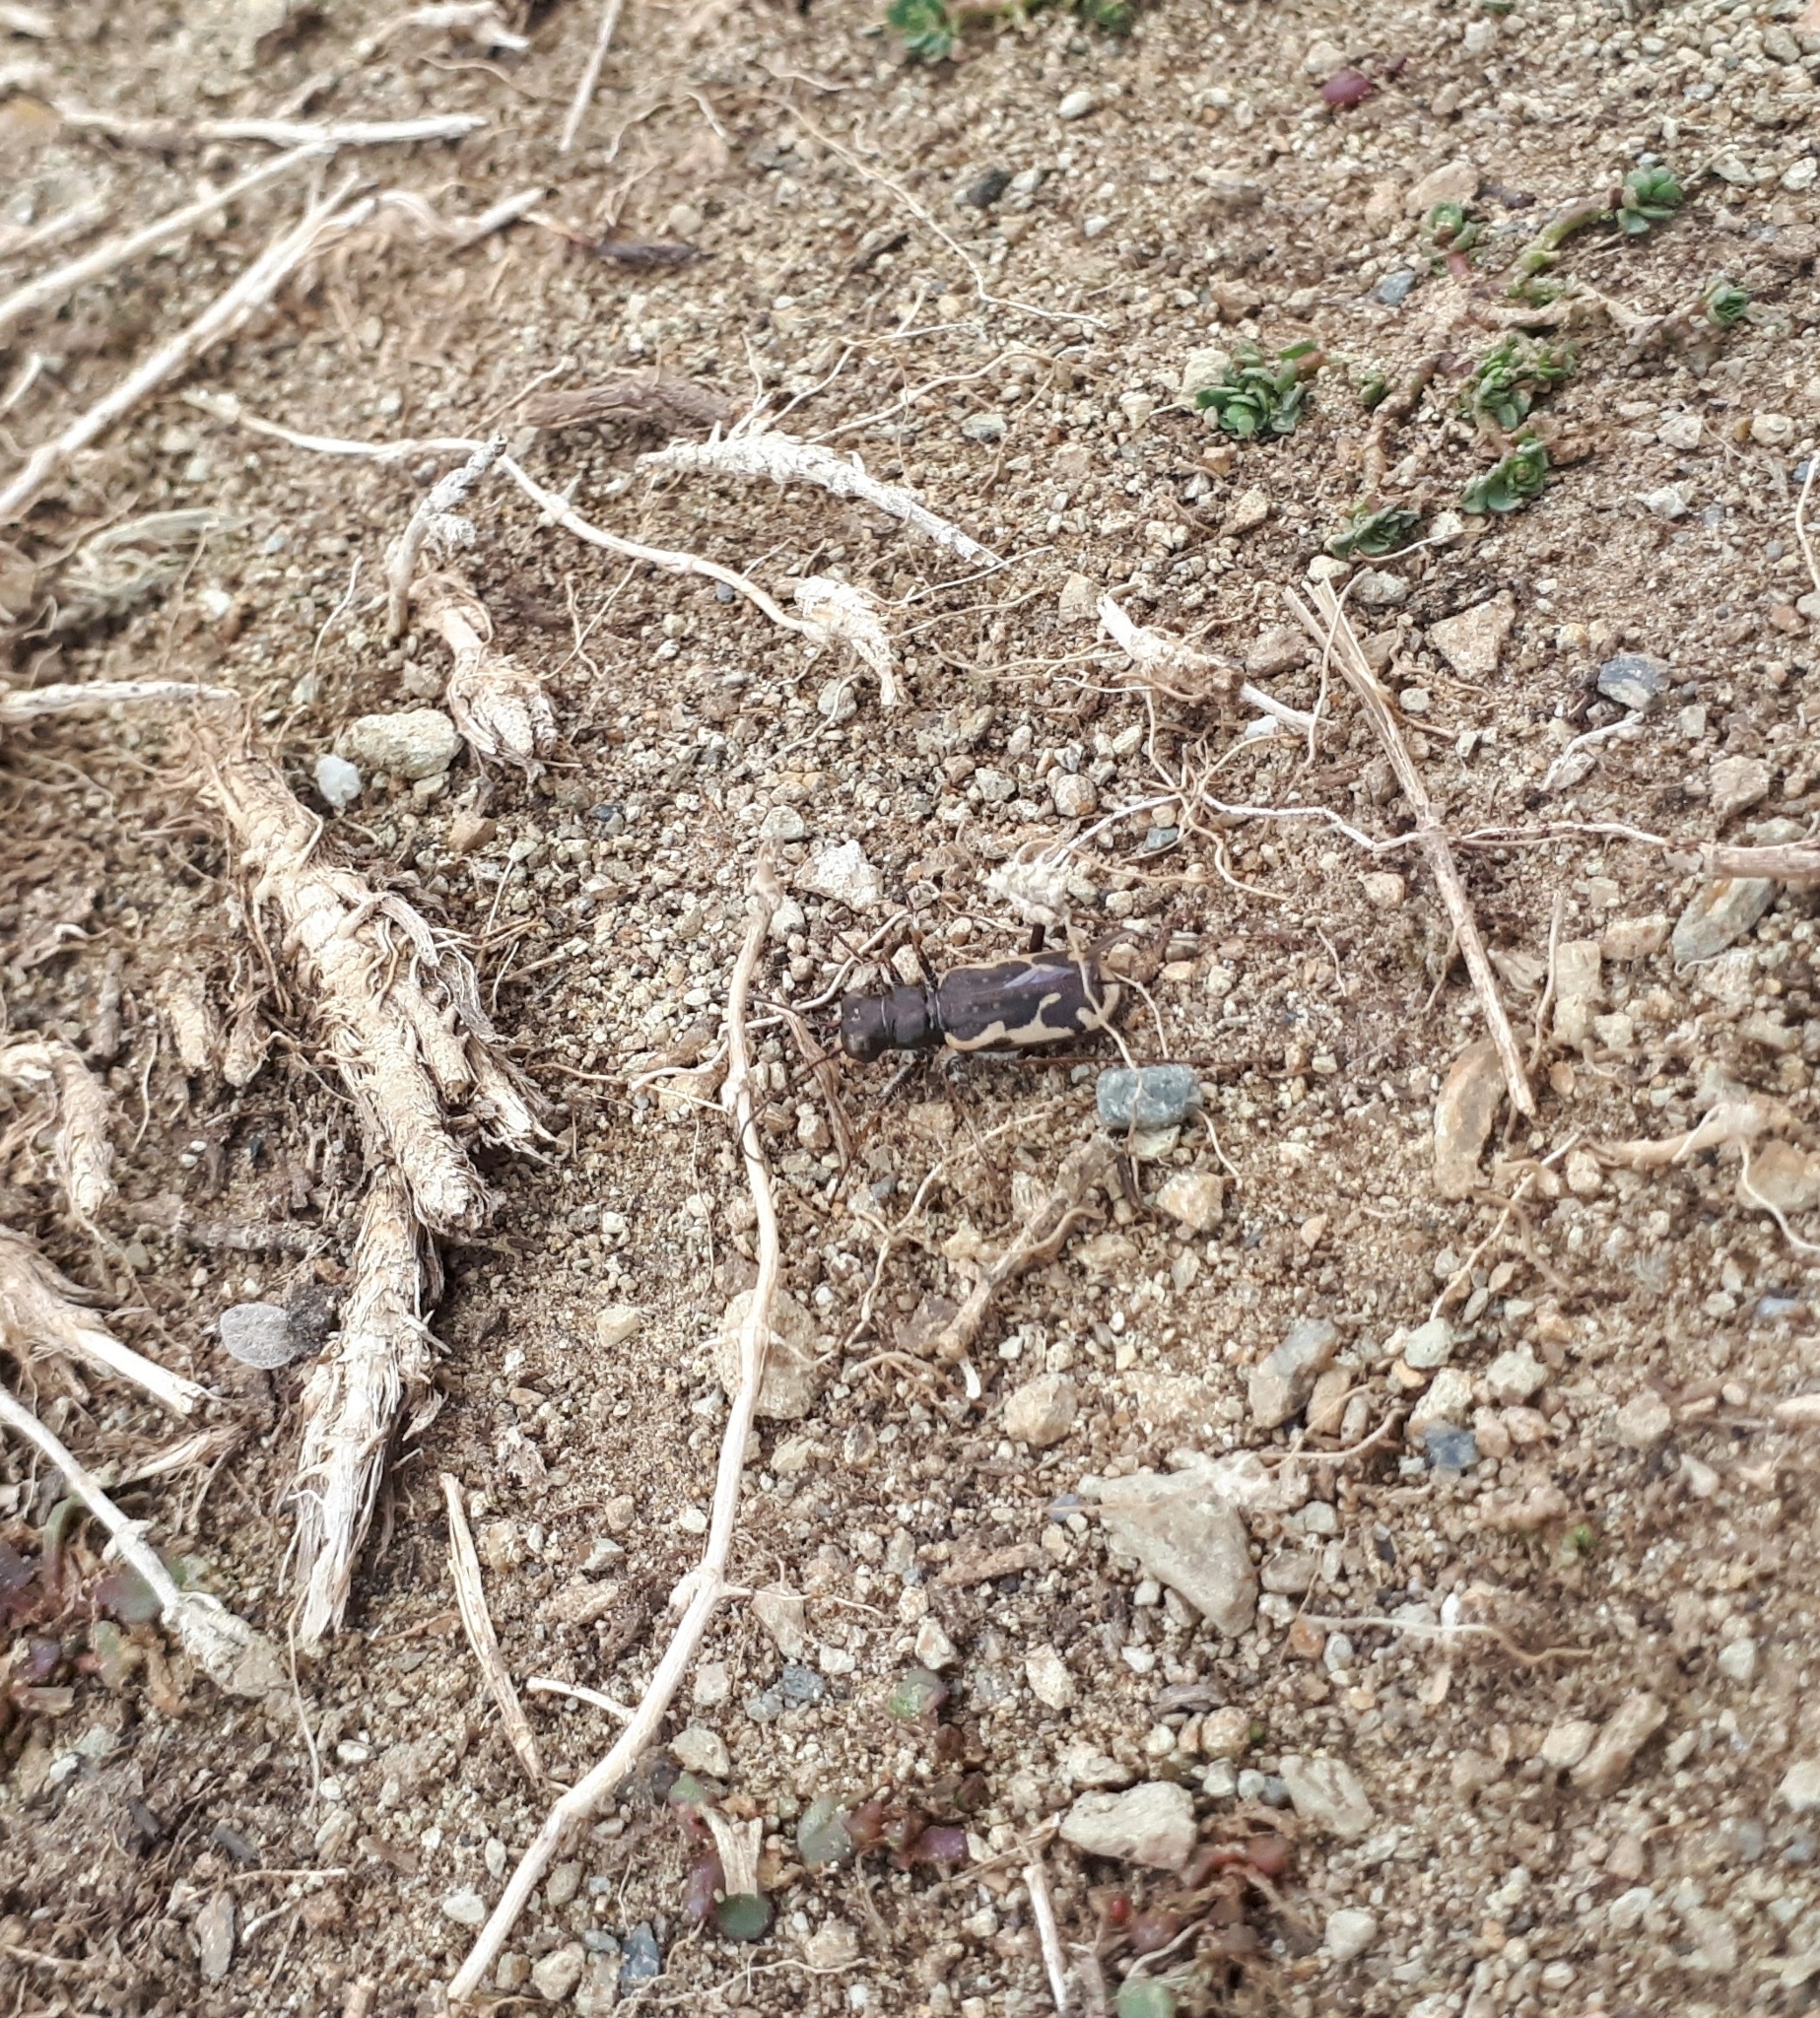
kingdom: Animalia
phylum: Arthropoda
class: Insecta
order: Coleoptera
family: Carabidae
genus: Neocicindela
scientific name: Neocicindela tuberculata
